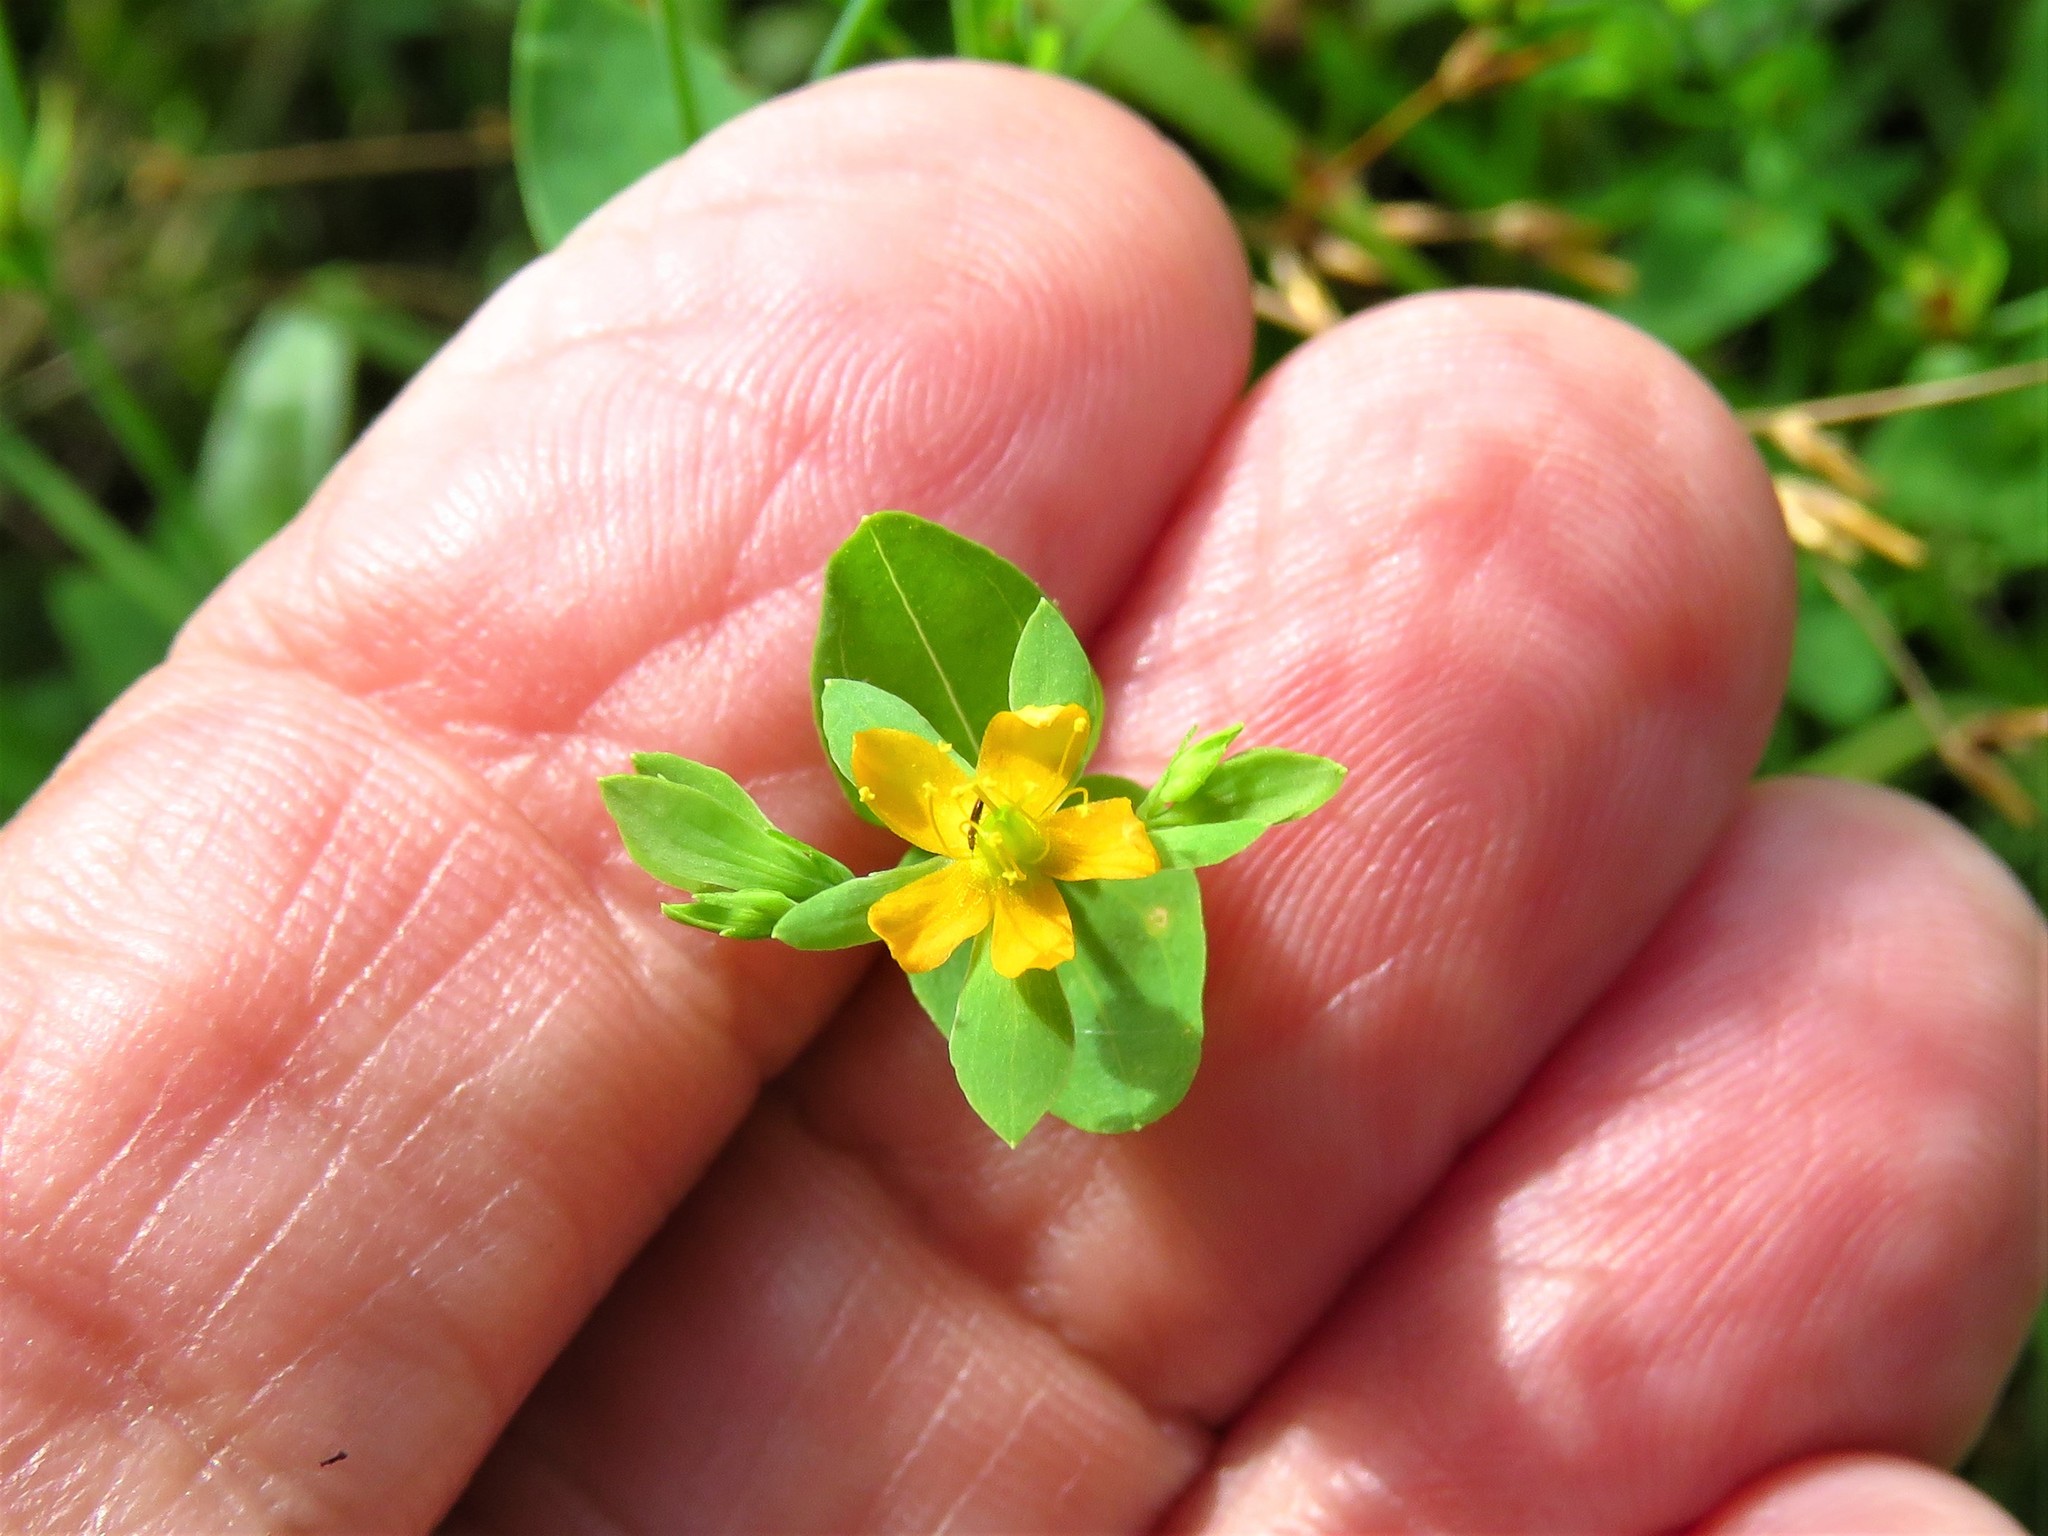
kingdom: Plantae
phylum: Tracheophyta
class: Magnoliopsida
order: Malpighiales
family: Hypericaceae
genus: Hypericum
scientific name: Hypericum mutilum
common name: Dwarf st. john's-wort
